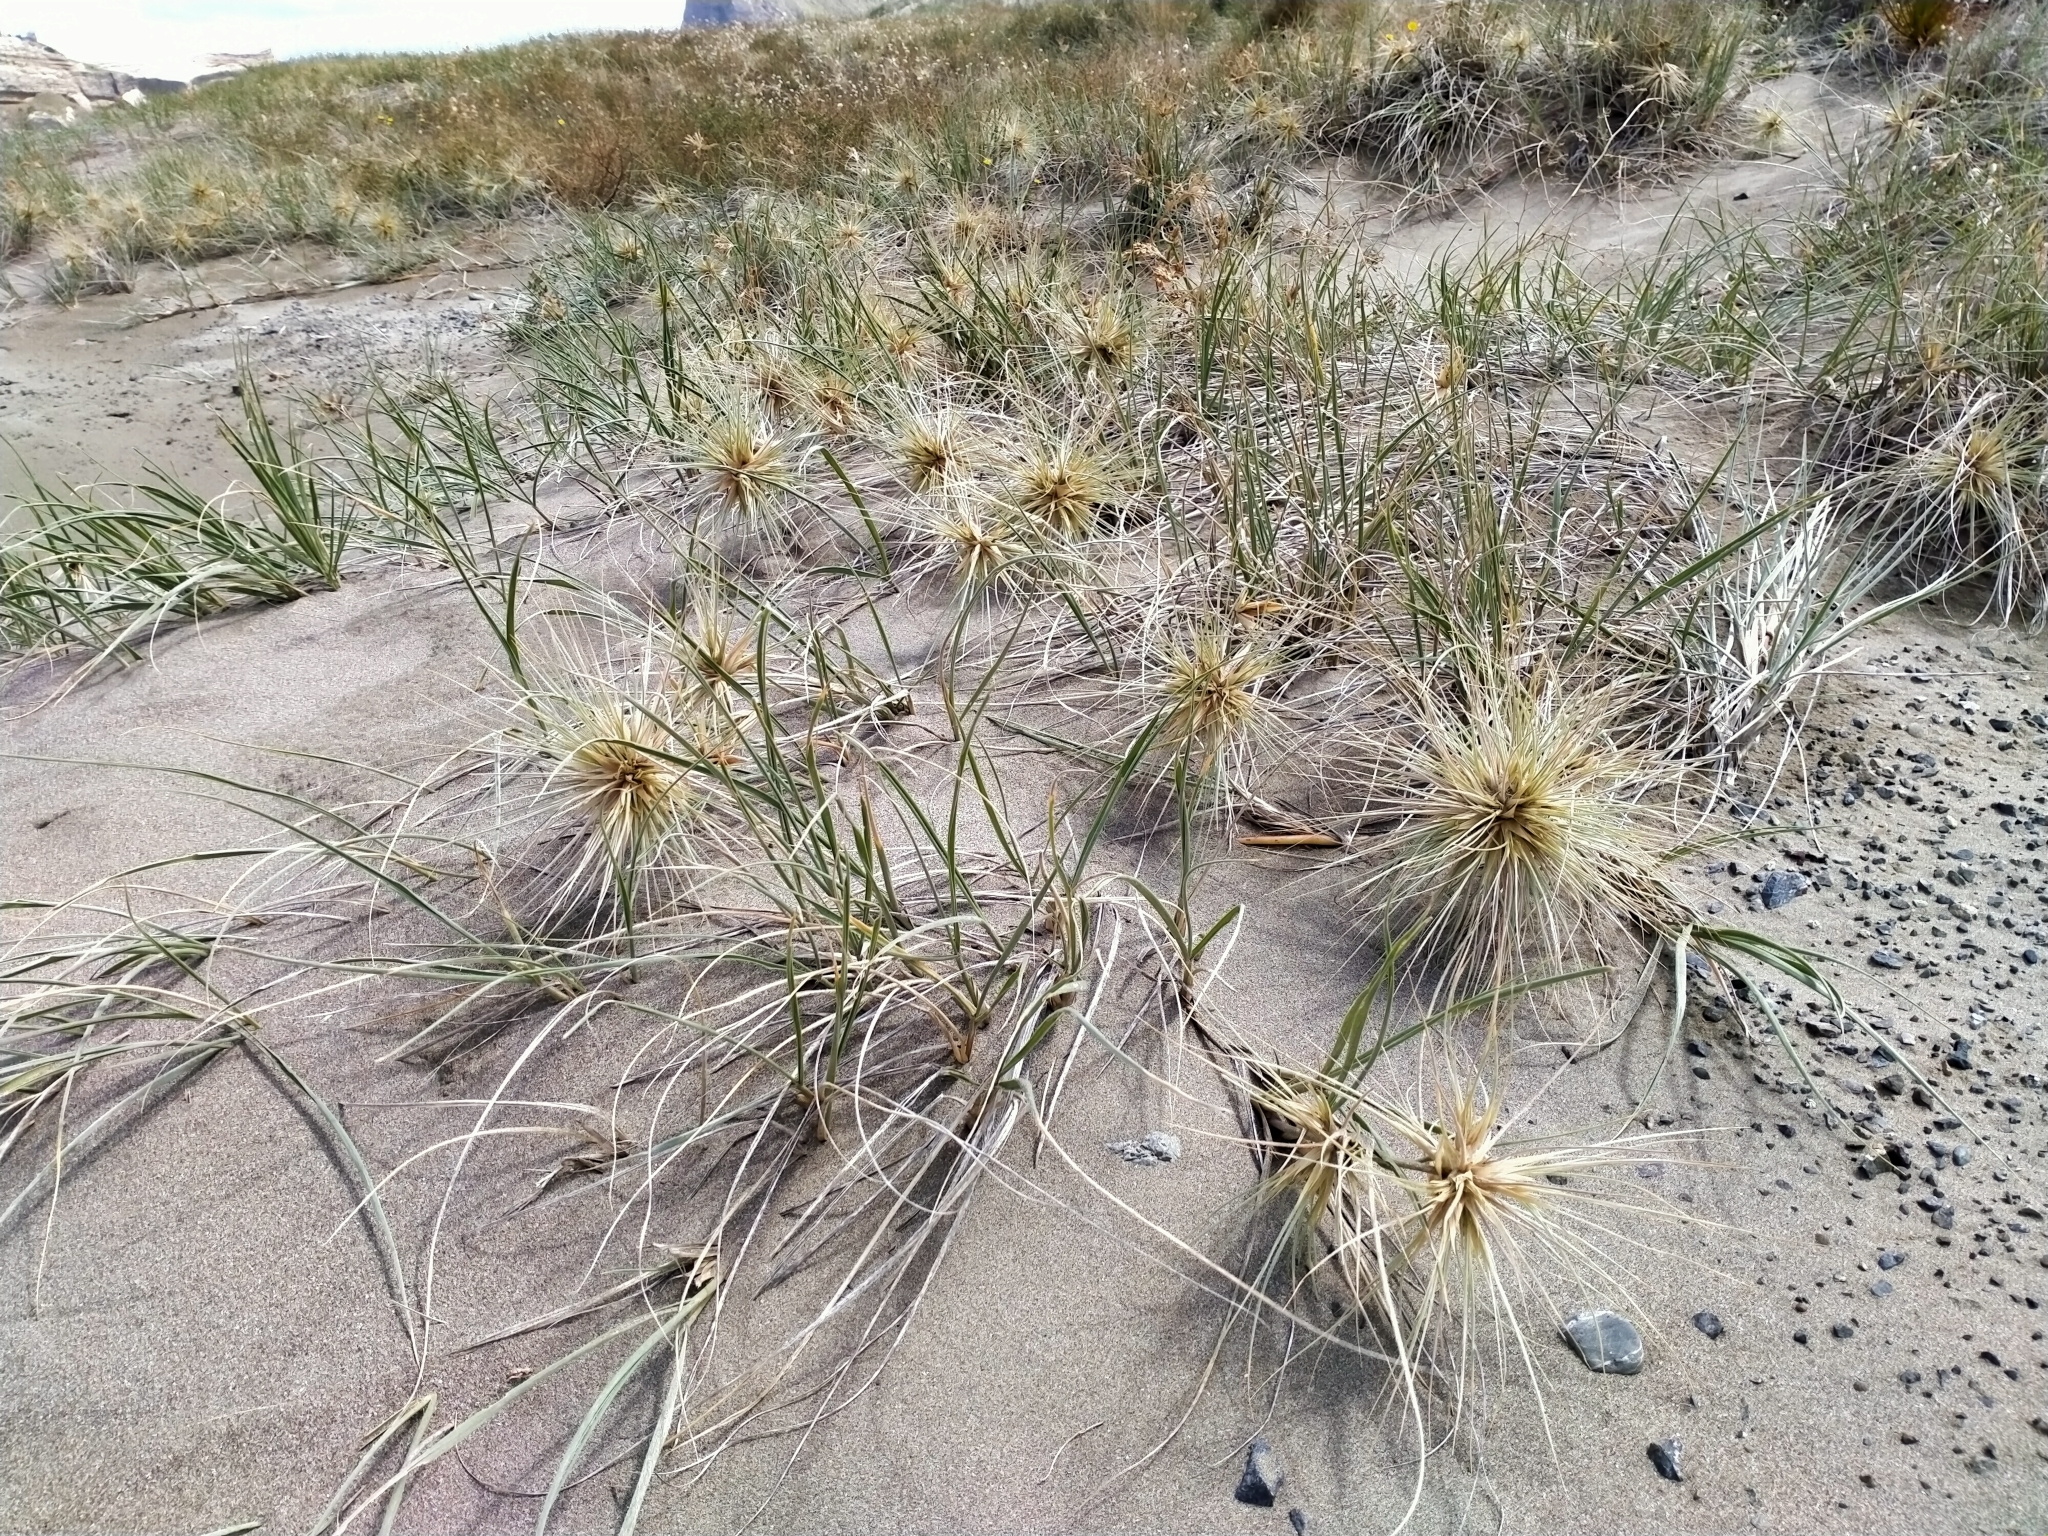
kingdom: Plantae
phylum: Tracheophyta
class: Liliopsida
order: Poales
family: Poaceae
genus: Spinifex
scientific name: Spinifex sericeus
